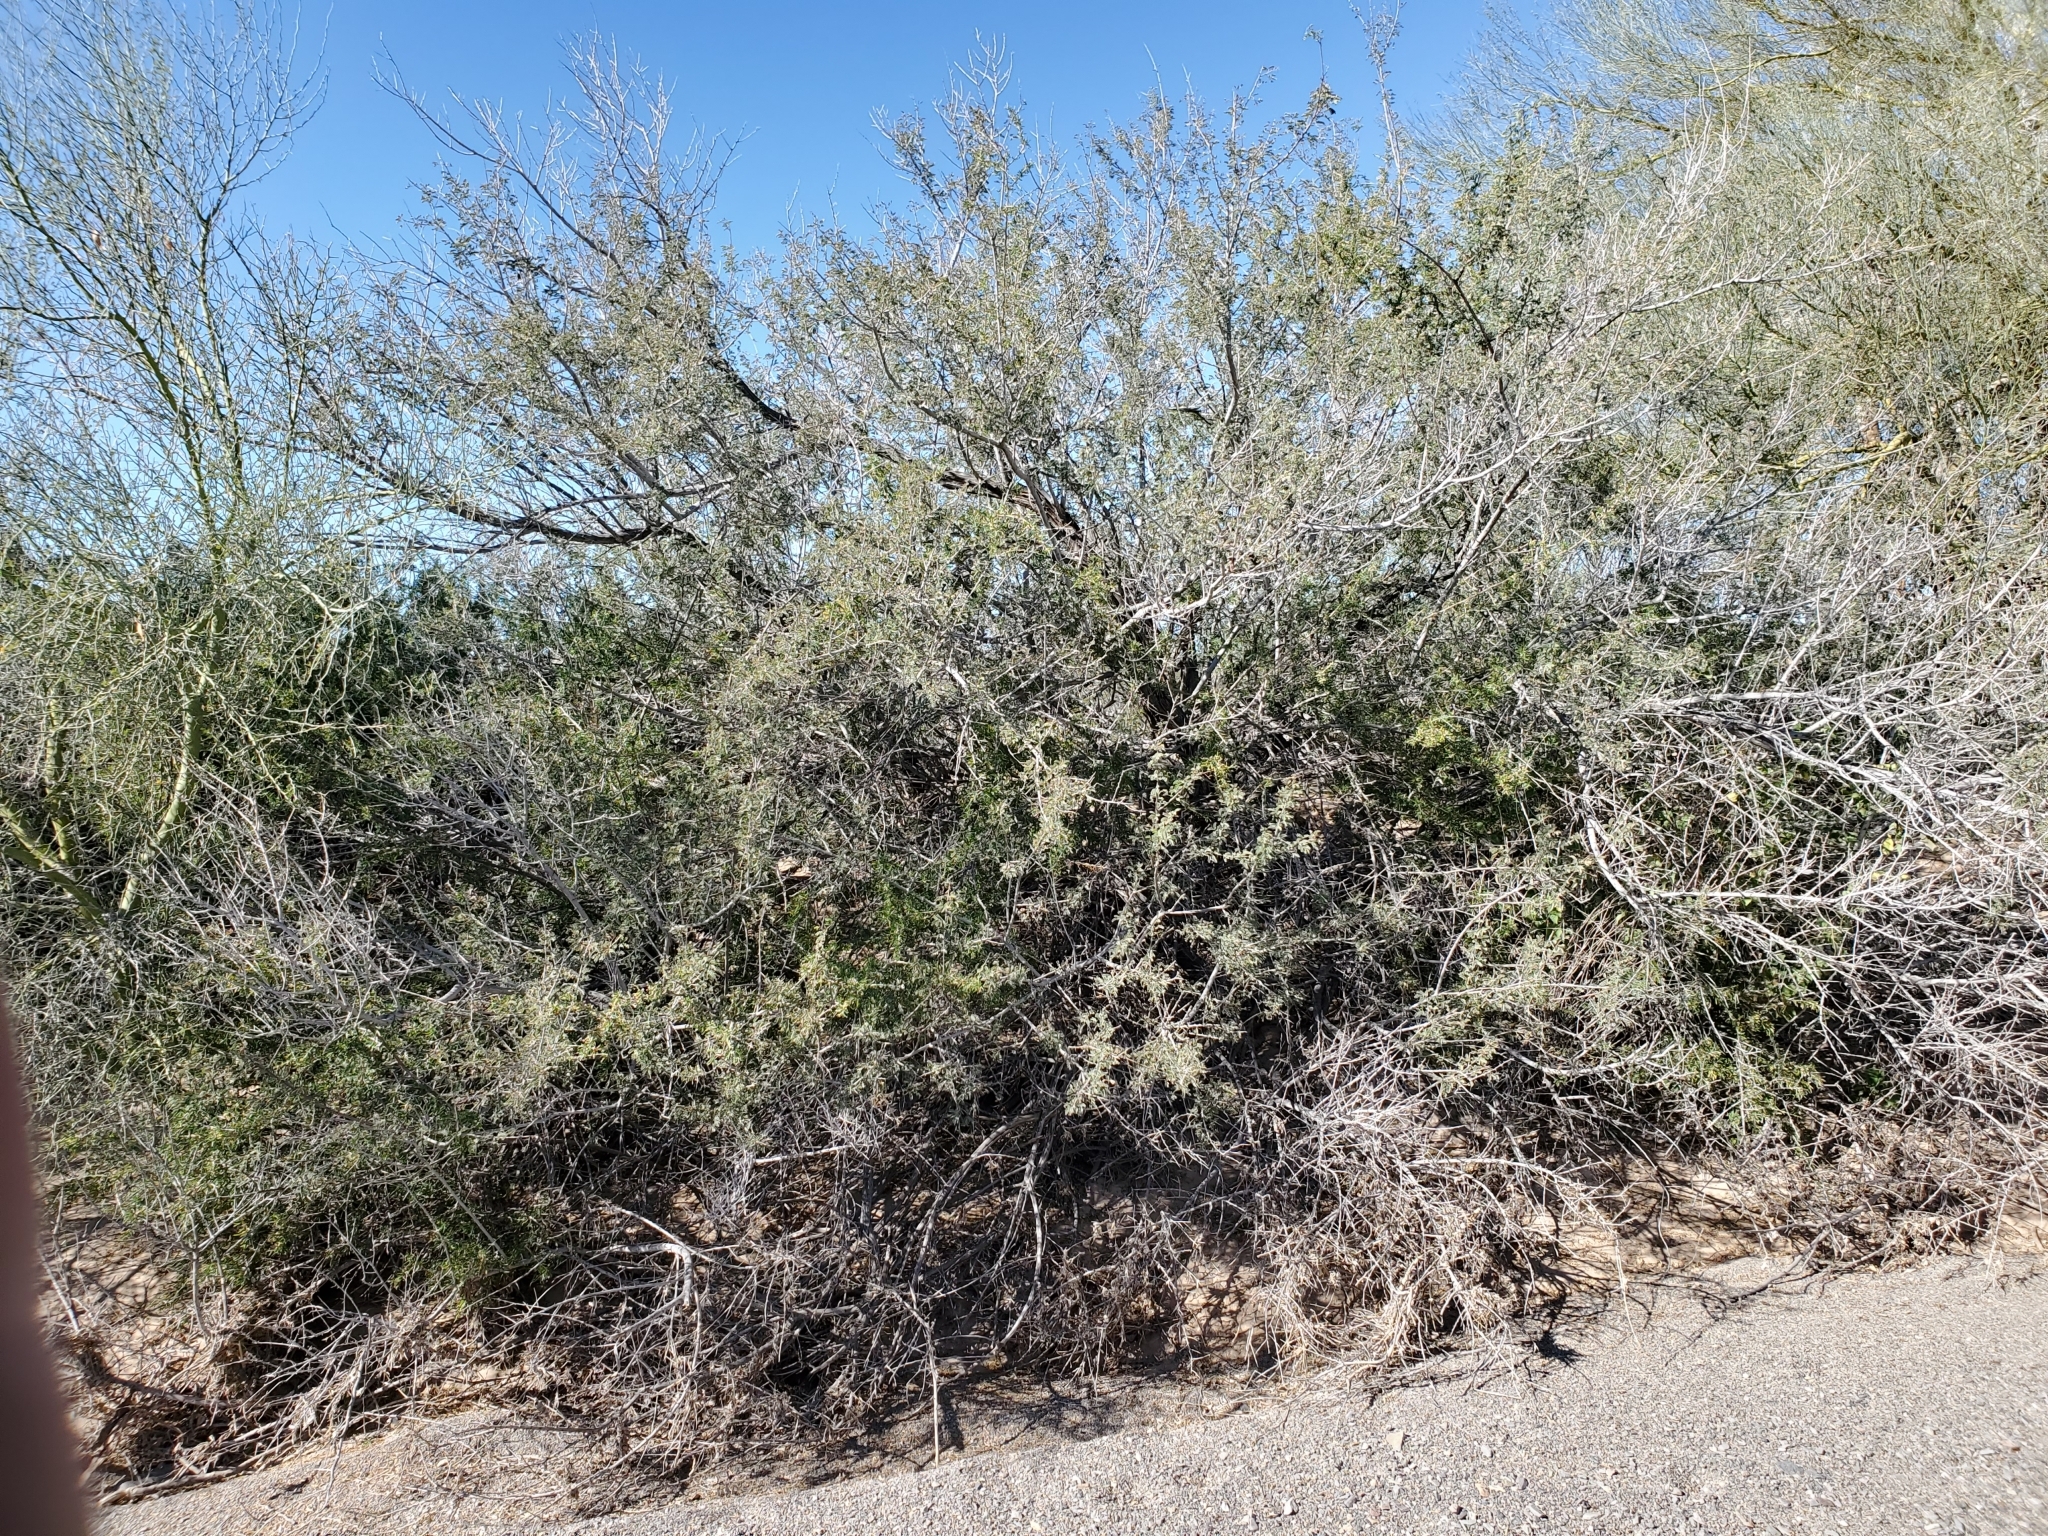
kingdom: Plantae
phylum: Tracheophyta
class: Magnoliopsida
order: Fabales
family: Fabaceae
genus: Senegalia
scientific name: Senegalia greggii
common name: Texas-mimosa
